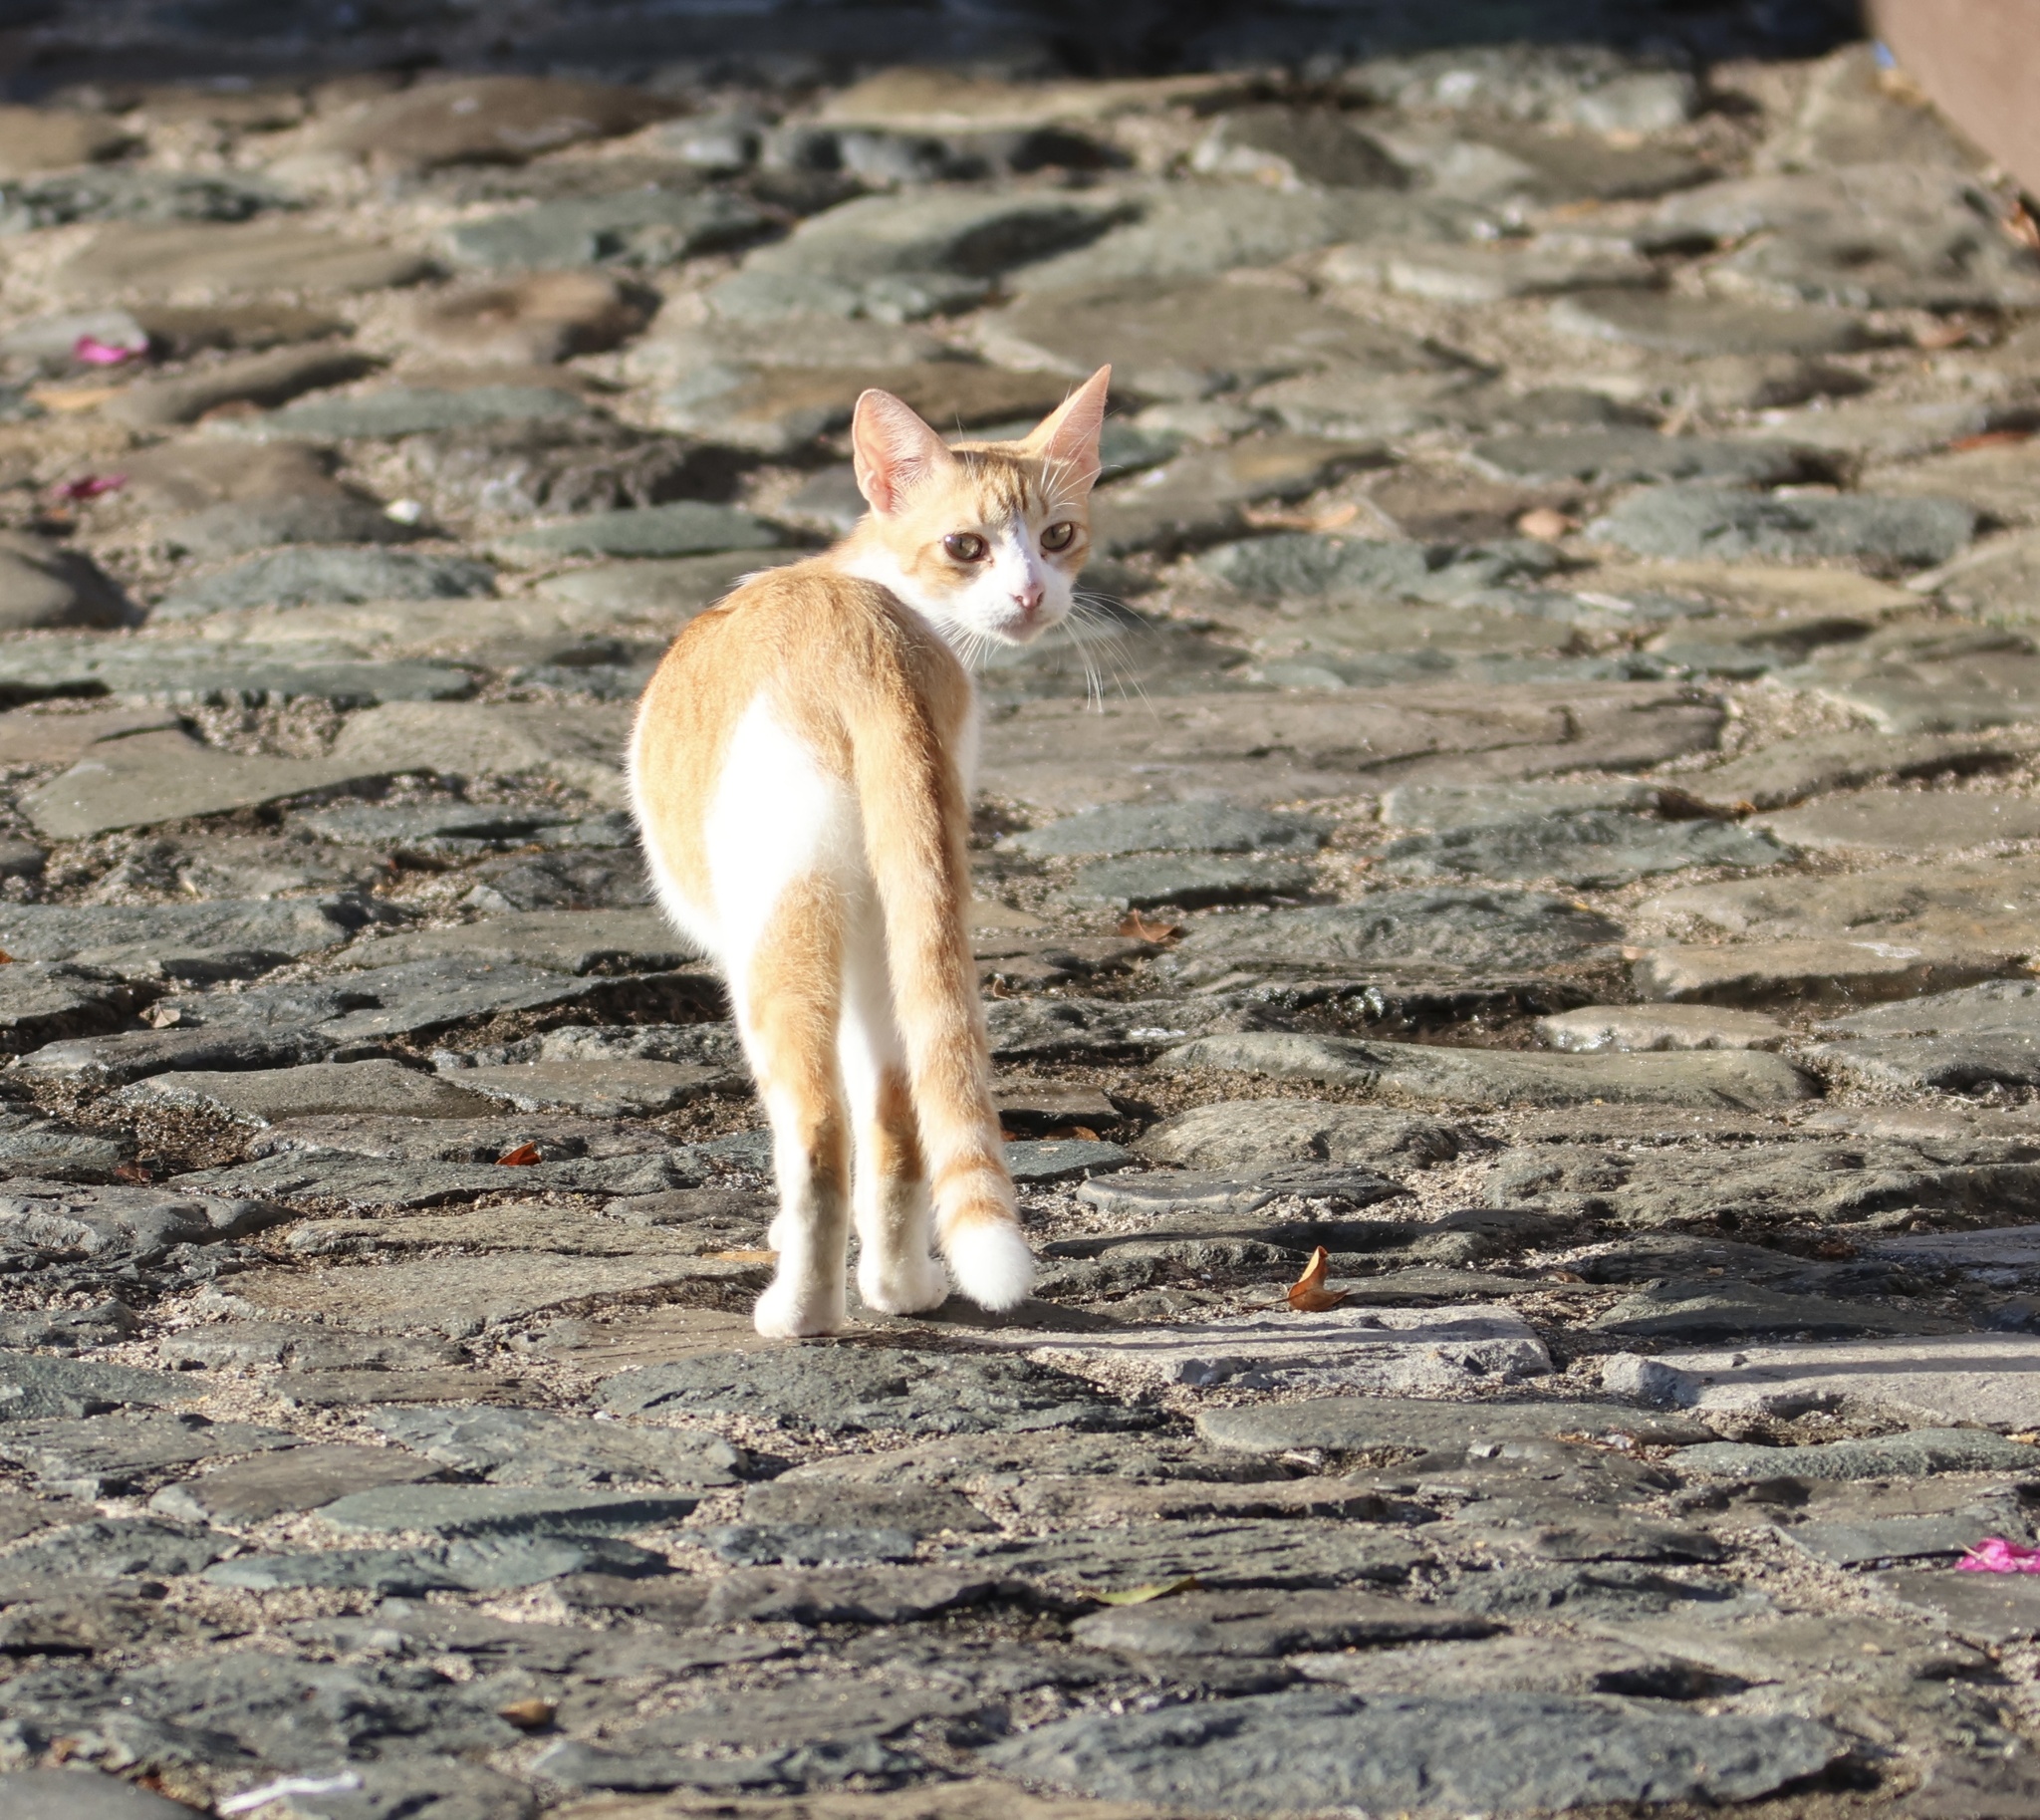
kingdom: Animalia
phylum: Chordata
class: Mammalia
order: Carnivora
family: Felidae
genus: Felis
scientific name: Felis catus
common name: Domestic cat
